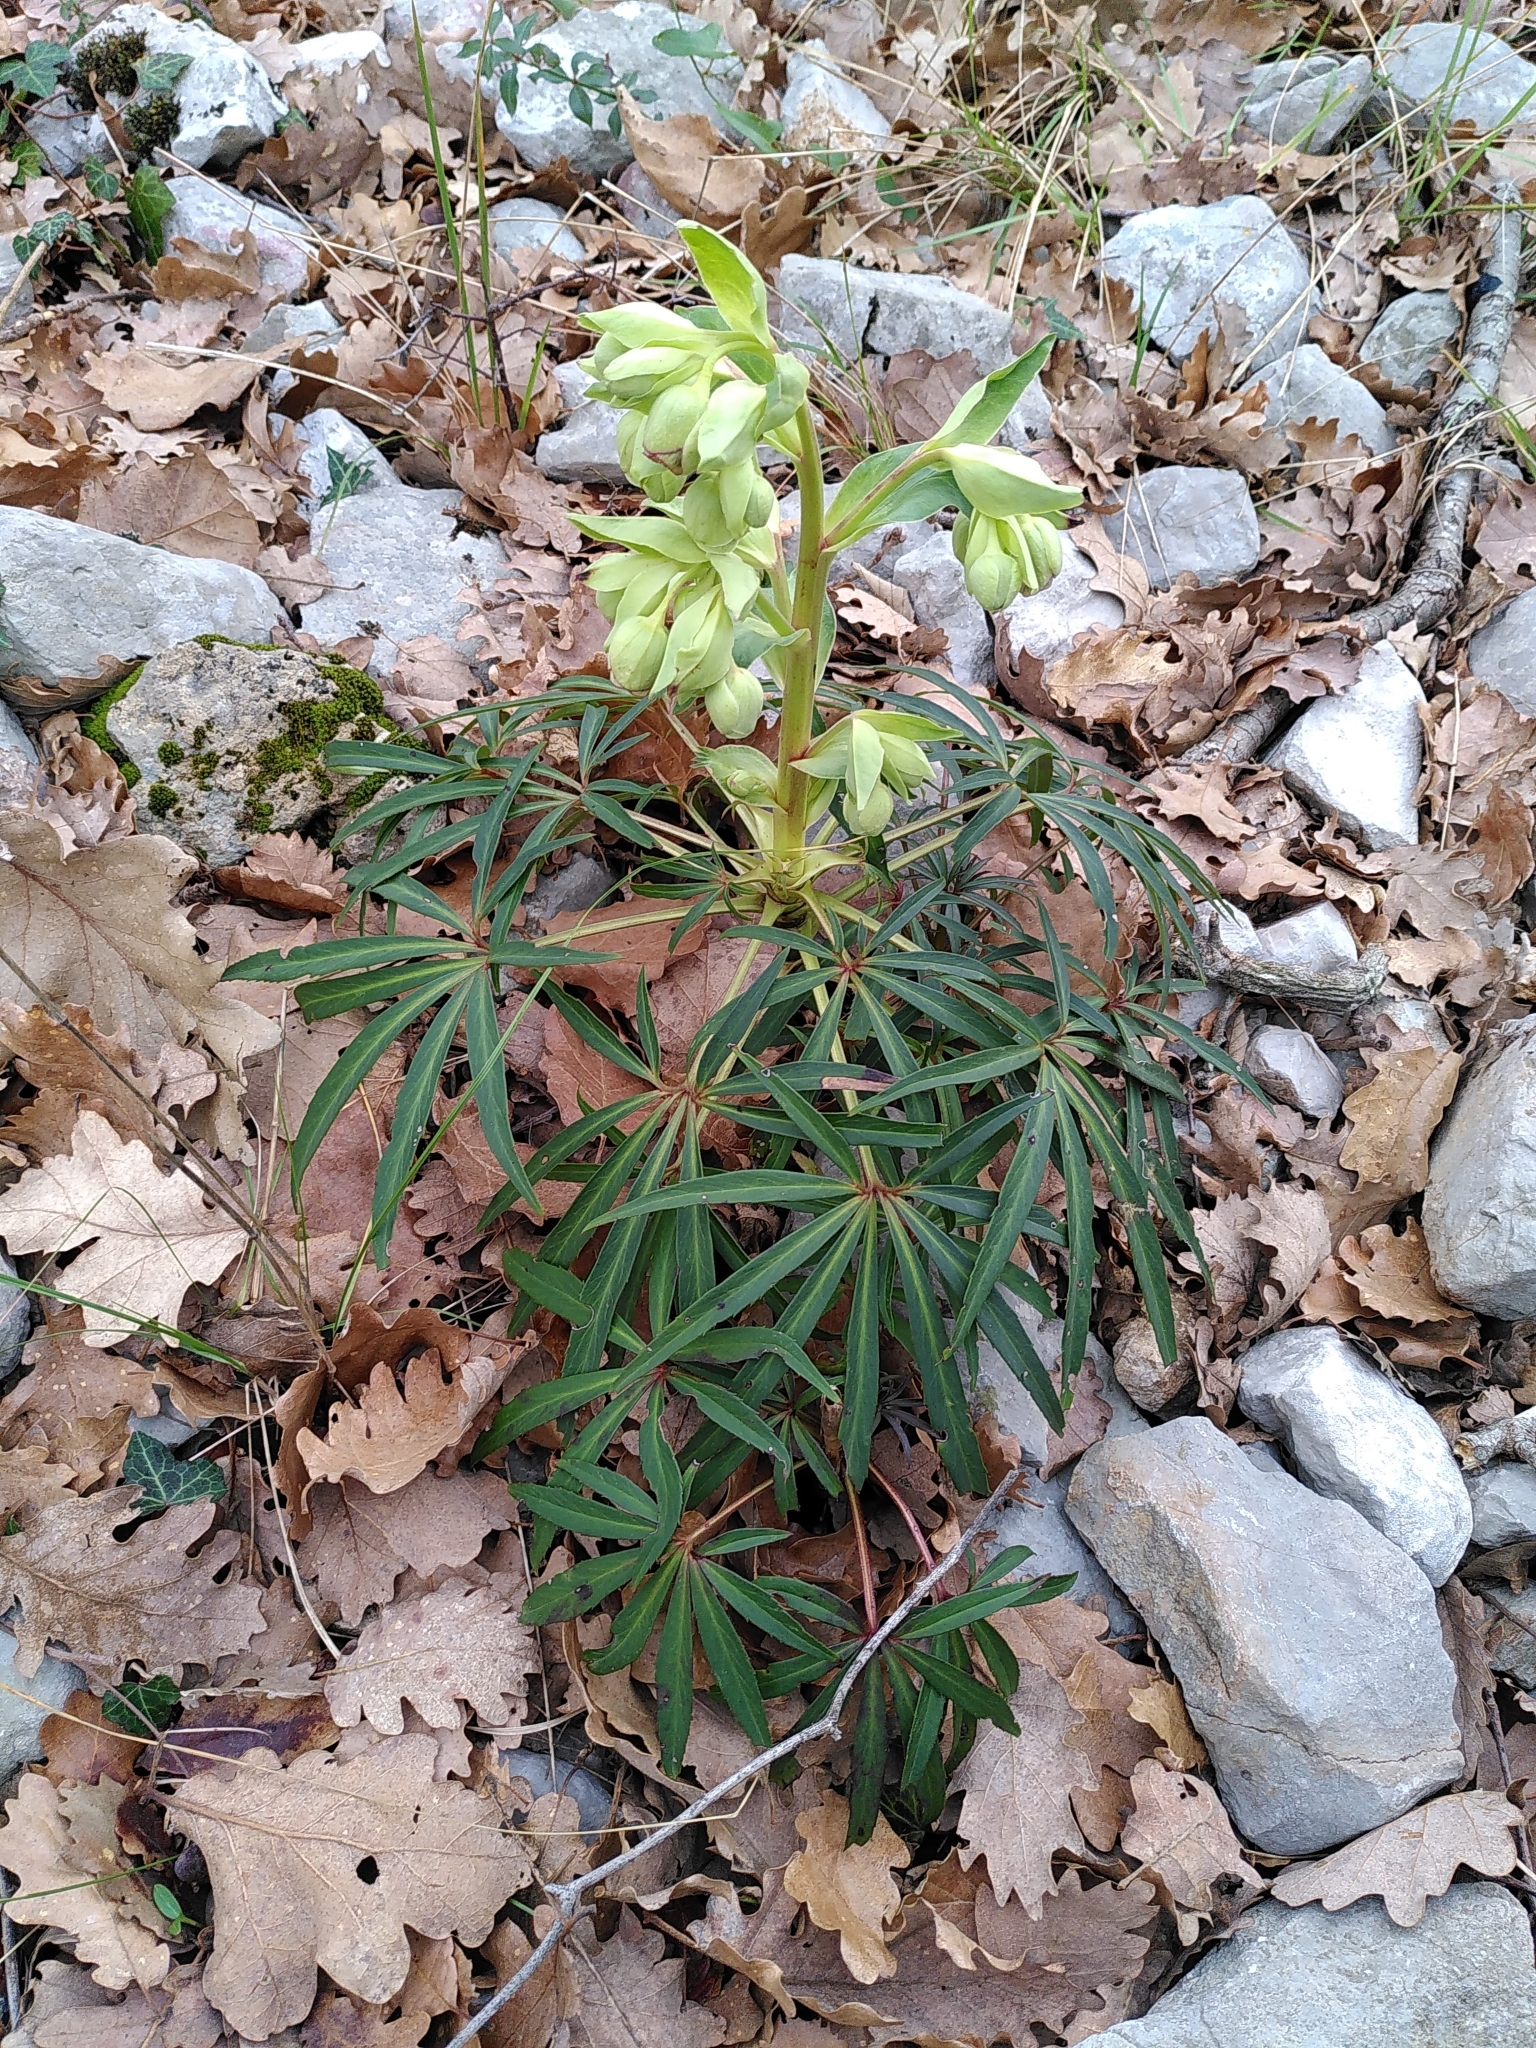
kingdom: Plantae
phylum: Tracheophyta
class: Magnoliopsida
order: Ranunculales
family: Ranunculaceae
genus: Helleborus
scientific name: Helleborus foetidus
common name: Stinking hellebore
